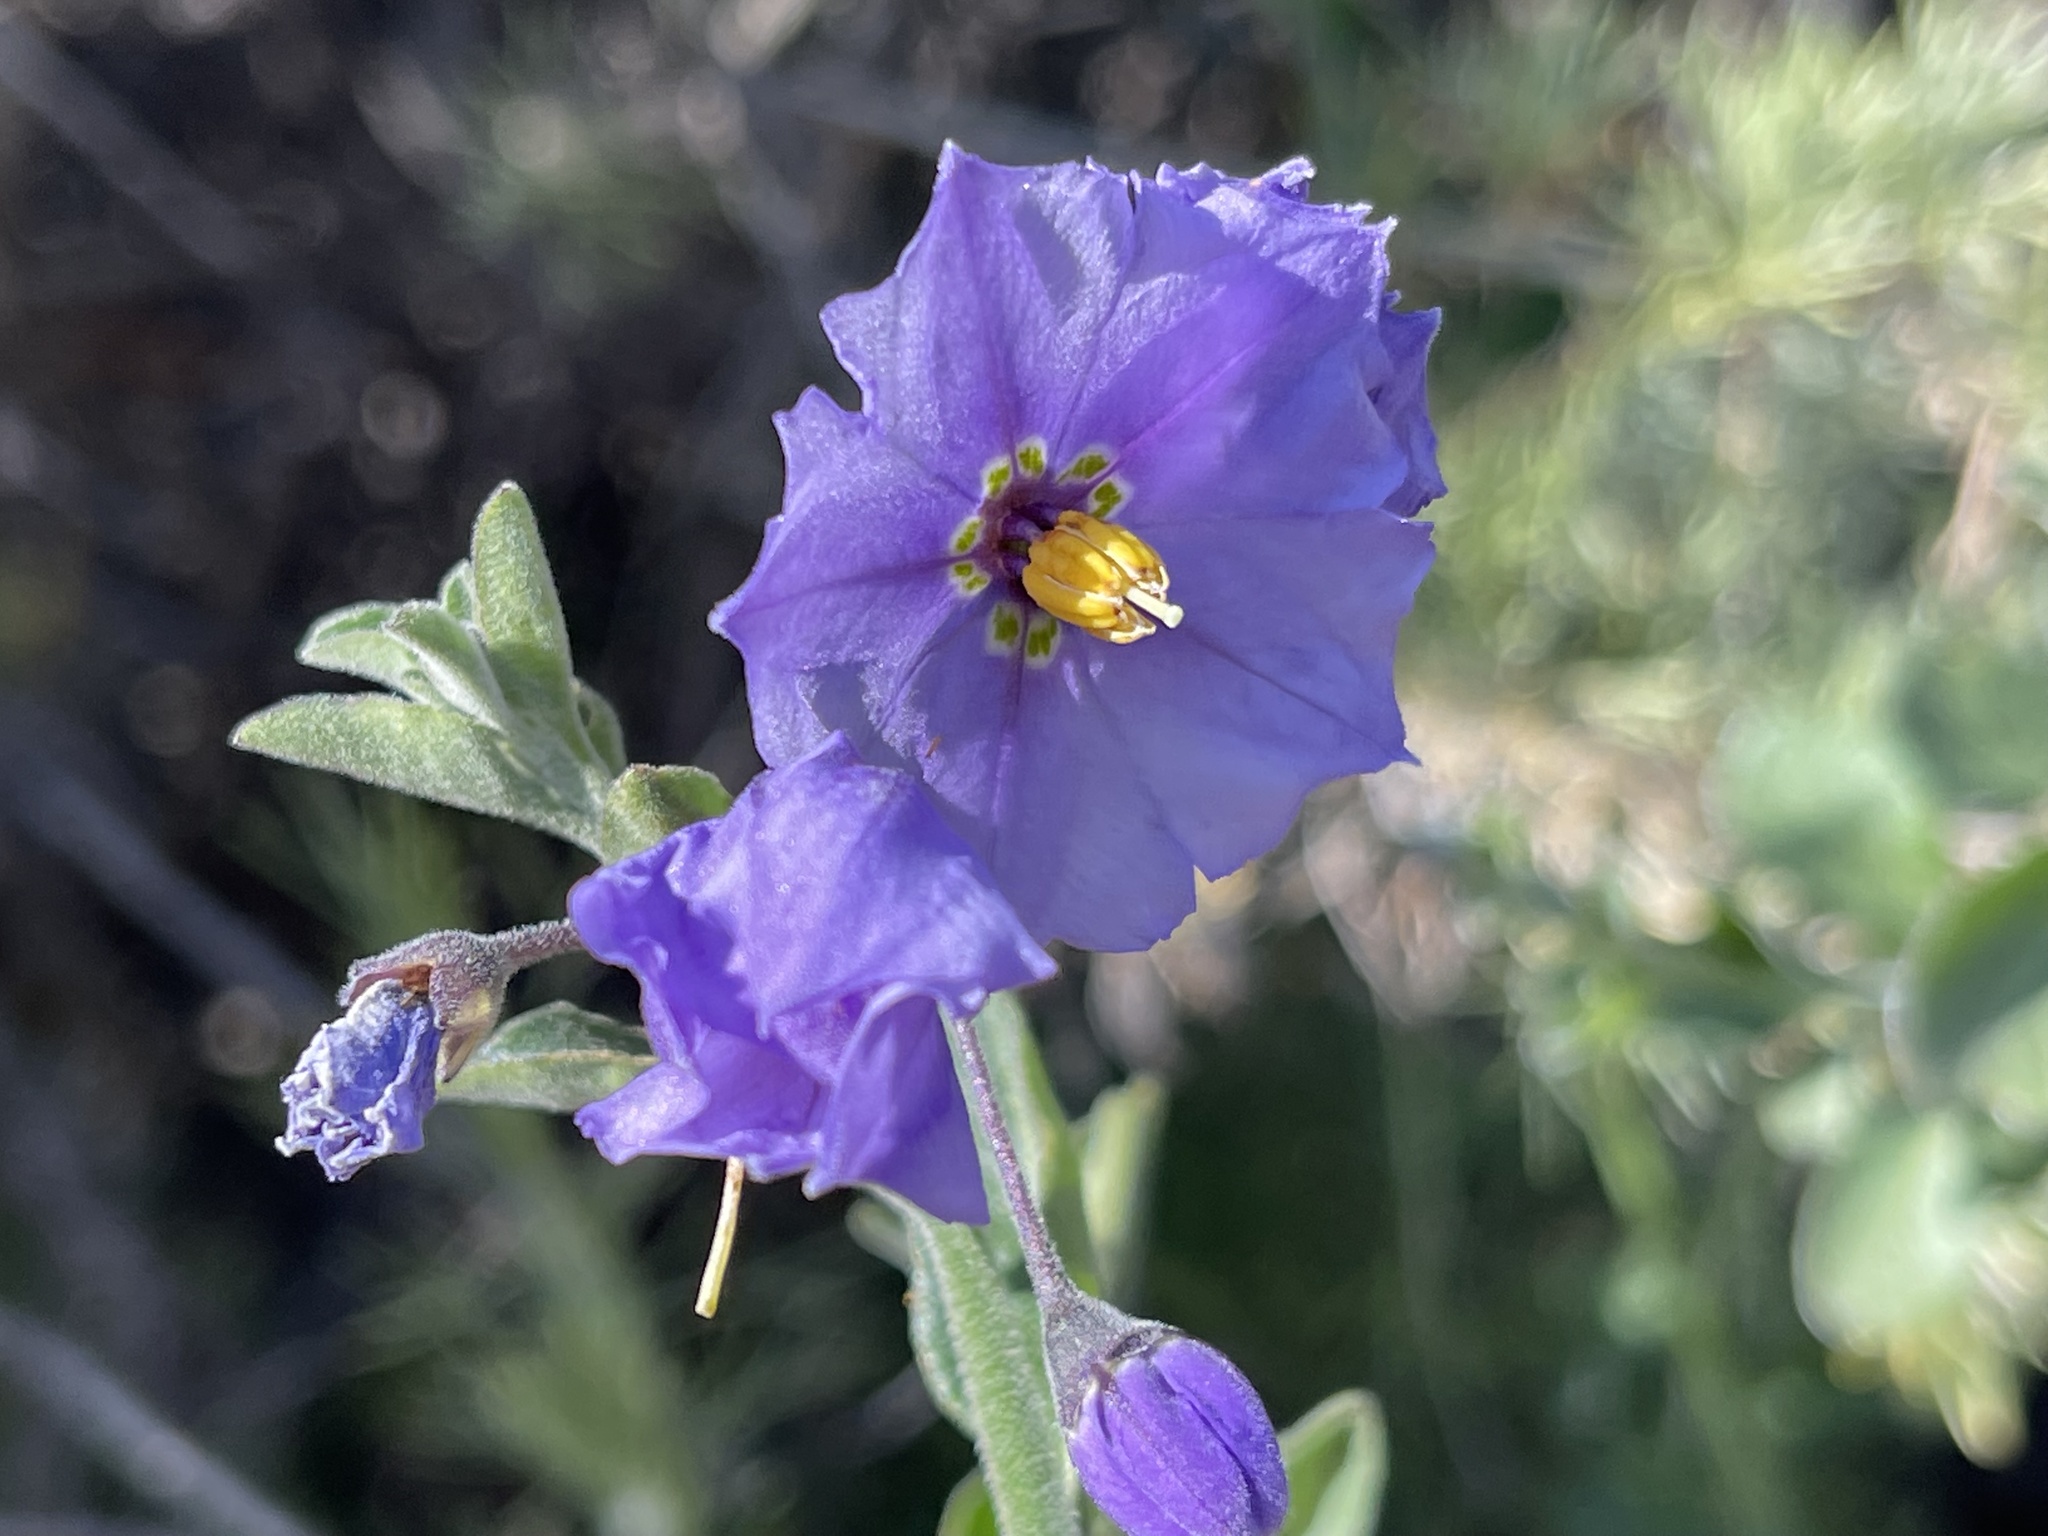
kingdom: Plantae
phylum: Tracheophyta
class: Magnoliopsida
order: Solanales
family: Solanaceae
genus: Solanum
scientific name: Solanum umbelliferum
